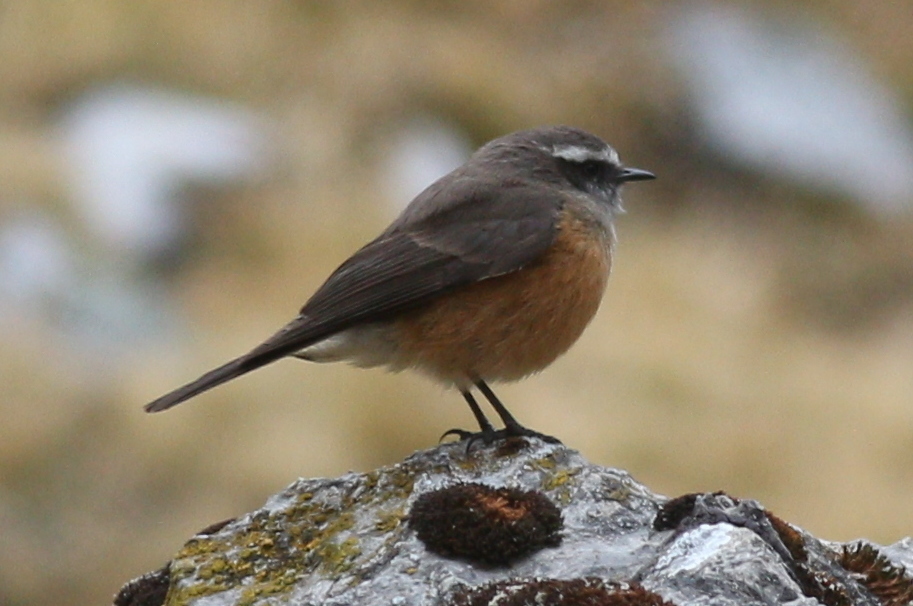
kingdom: Animalia
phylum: Chordata
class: Aves
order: Passeriformes
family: Tyrannidae
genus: Ochthoeca
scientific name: Ochthoeca oenanthoides
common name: D'orbigny's chat-tyrant
